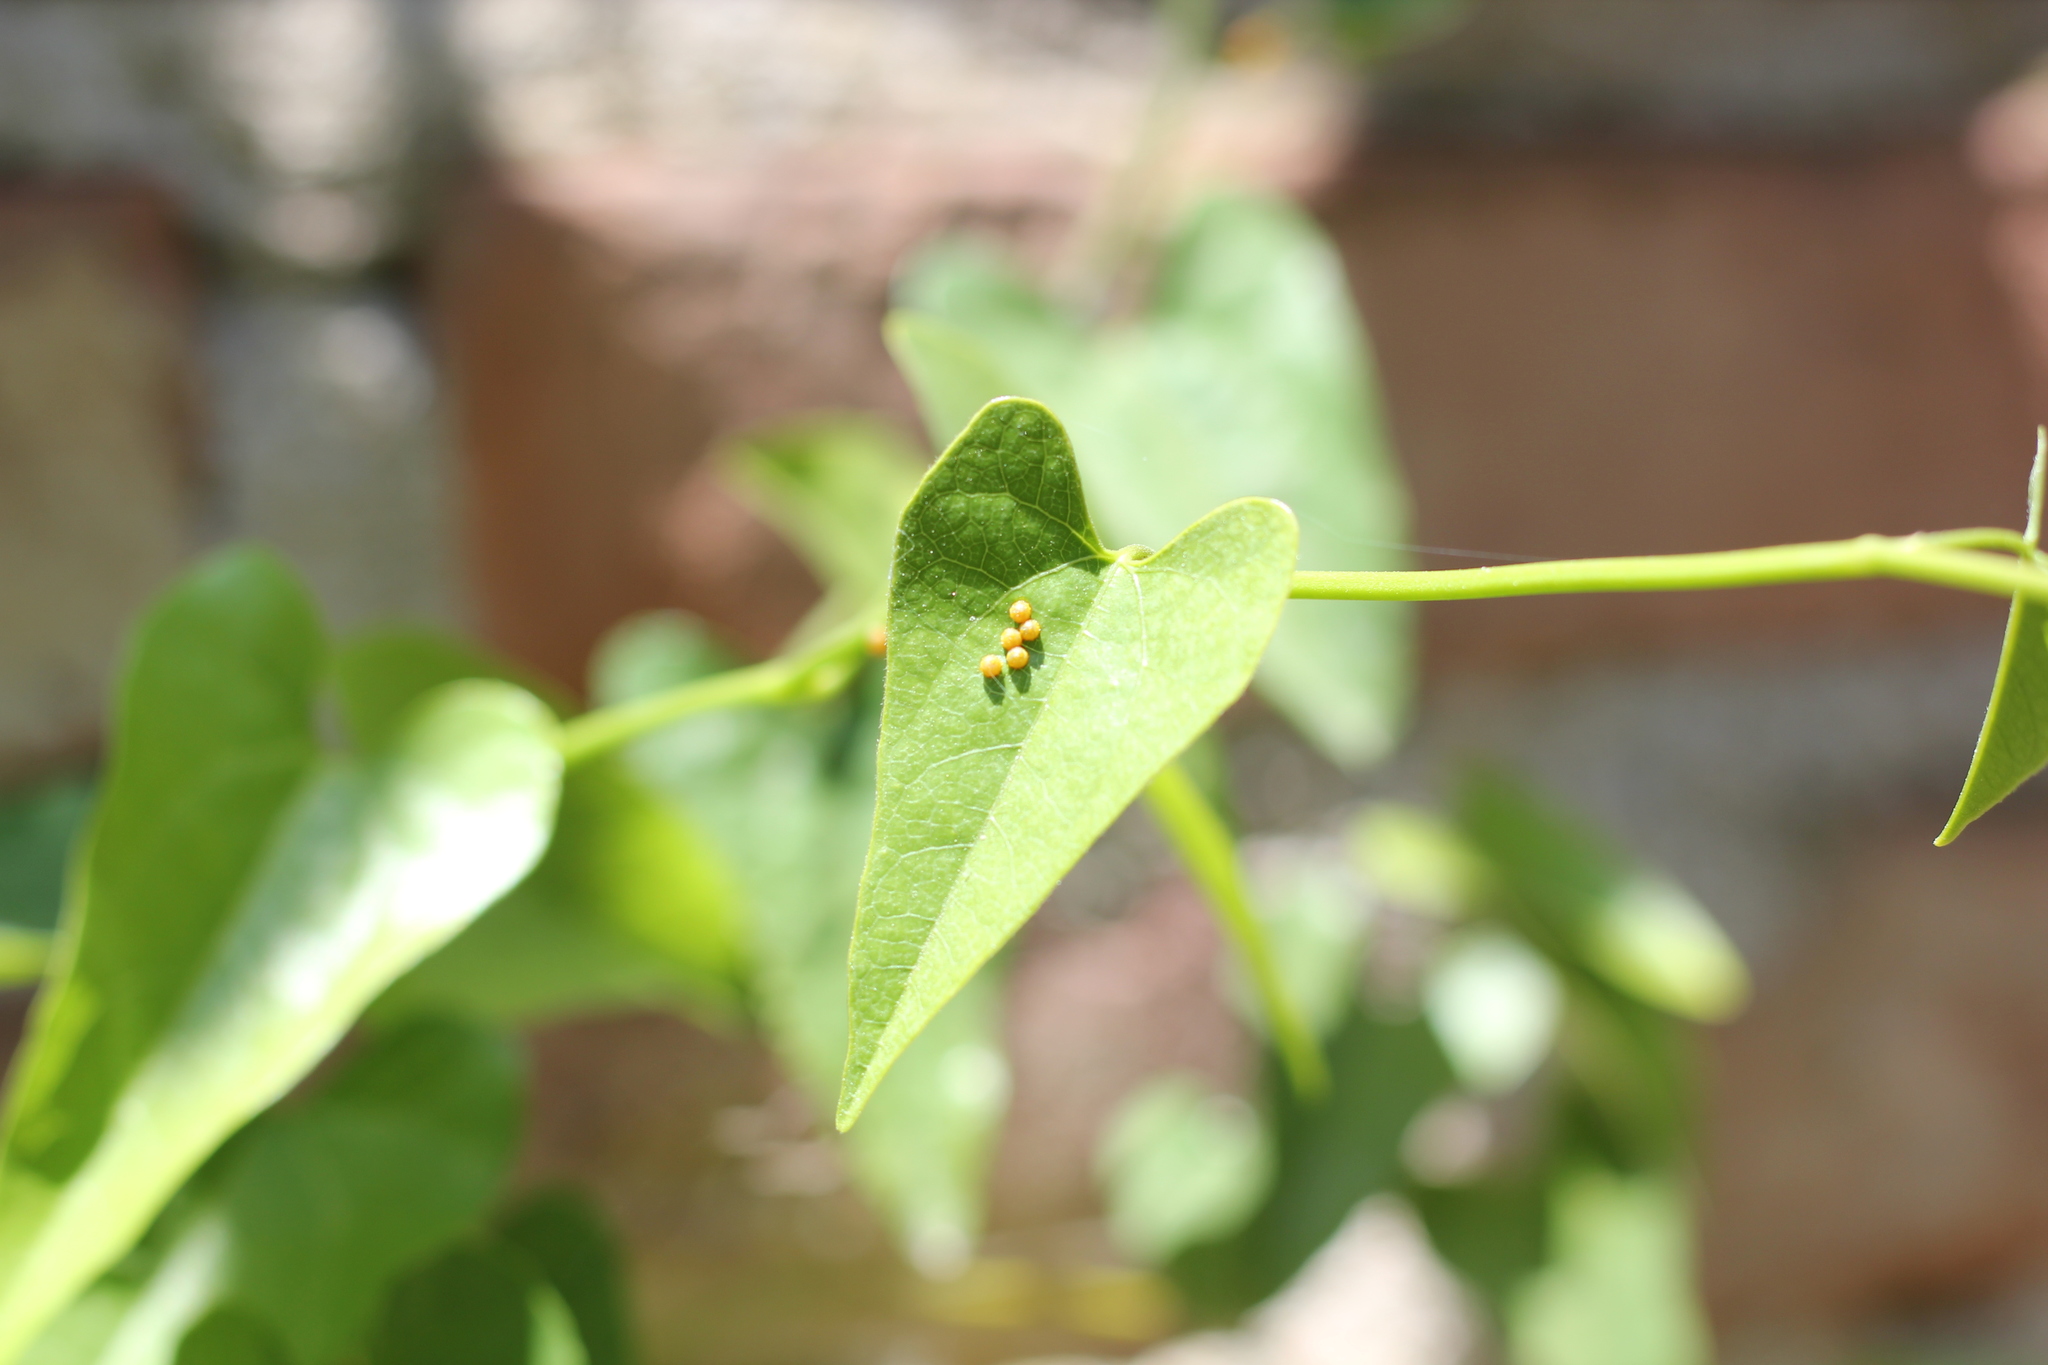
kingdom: Animalia
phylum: Arthropoda
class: Insecta
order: Lepidoptera
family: Papilionidae
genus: Battus
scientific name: Battus polydamas
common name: Polydamas swallowtail
